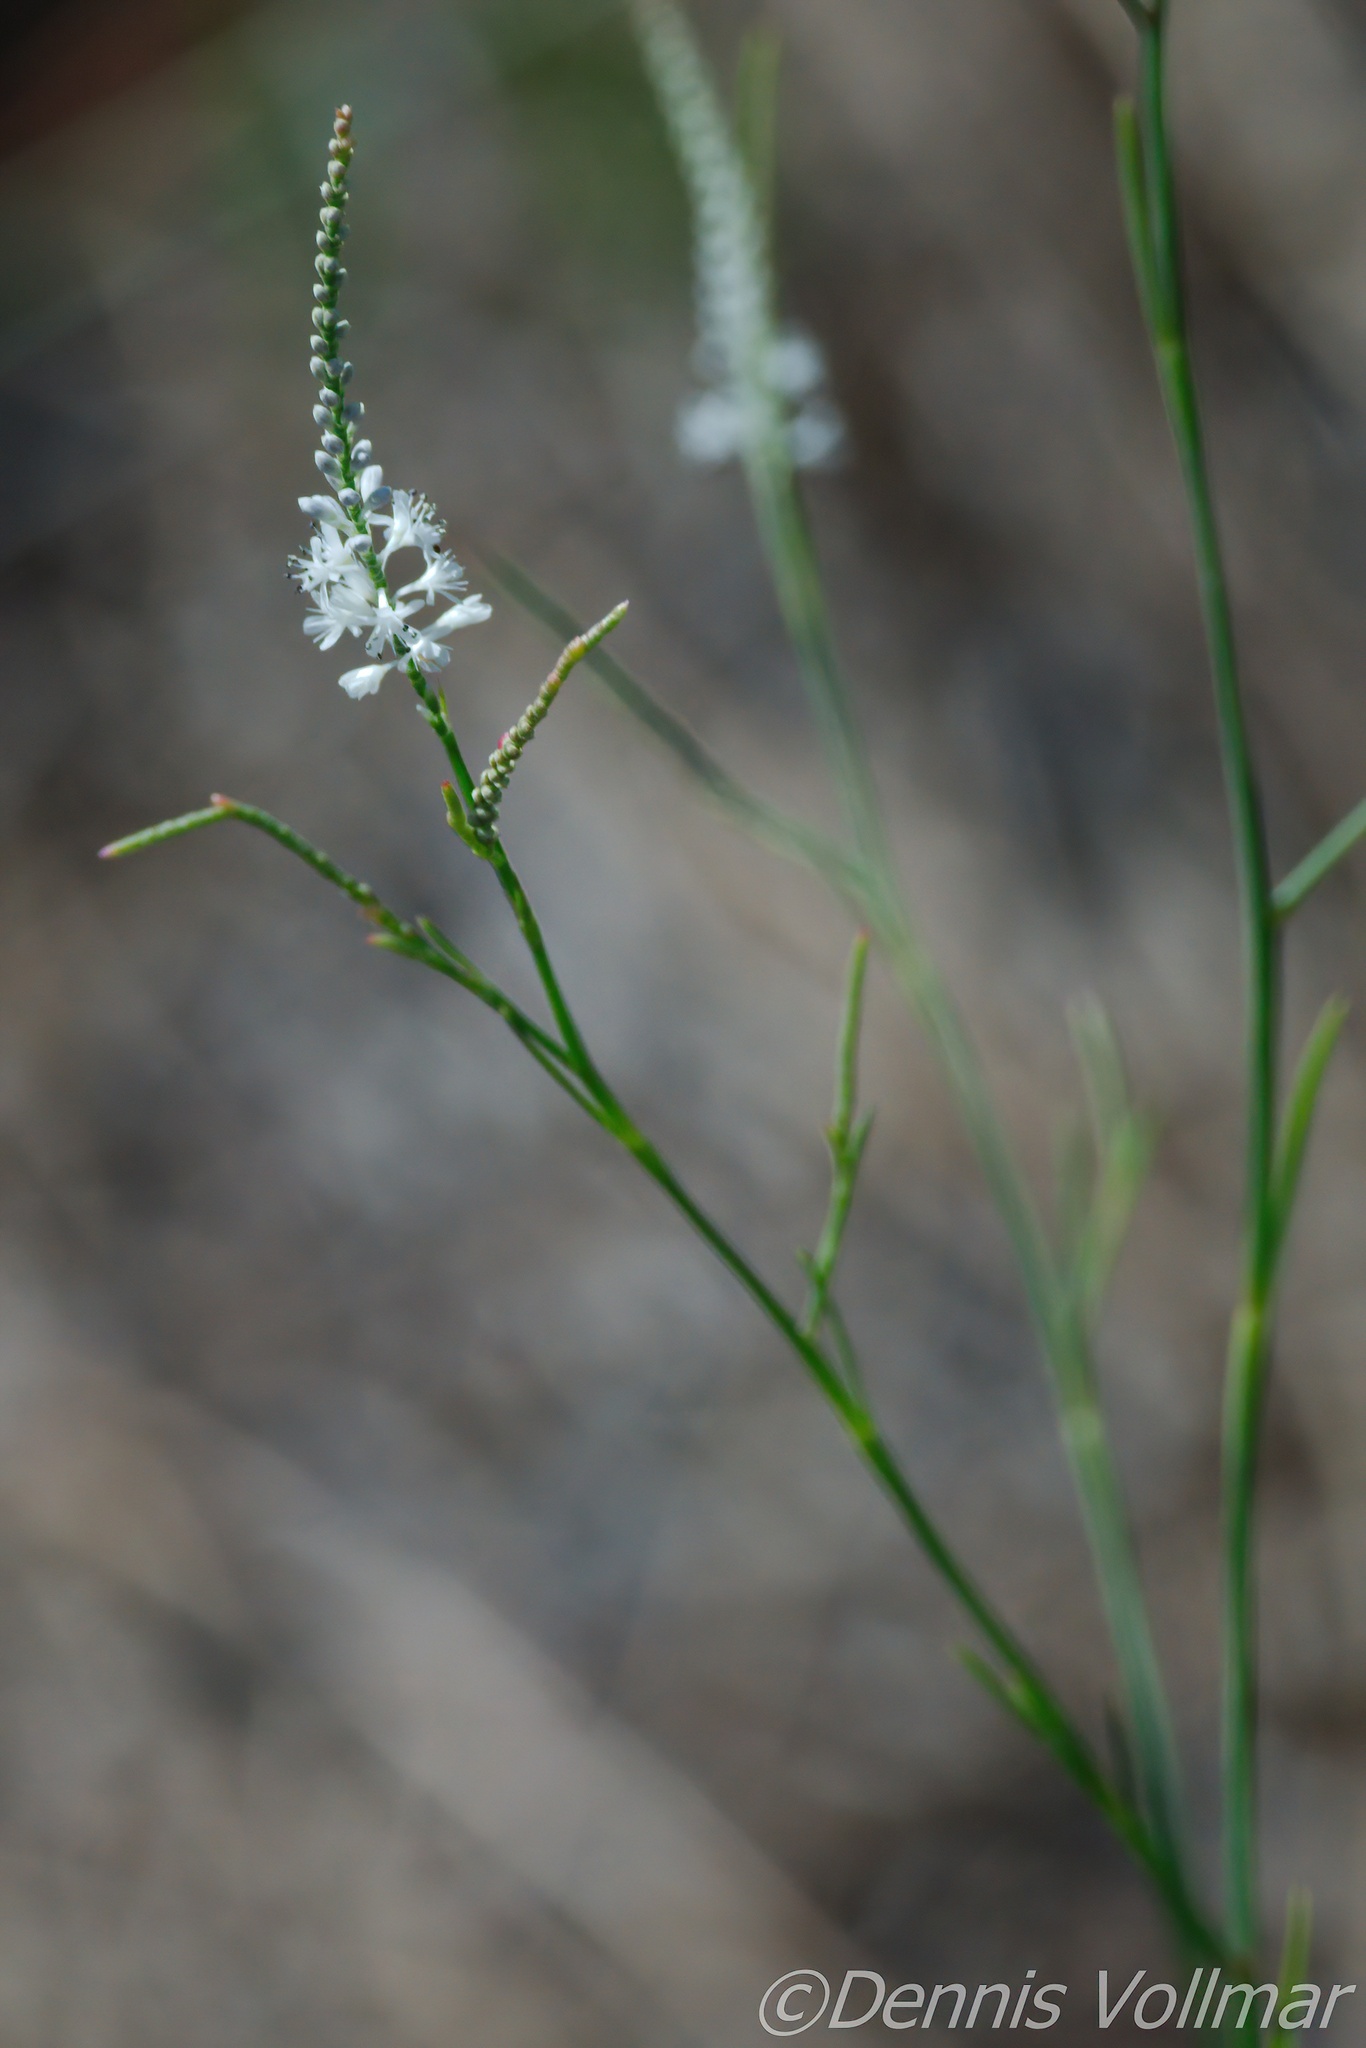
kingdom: Plantae
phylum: Tracheophyta
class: Magnoliopsida
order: Caryophyllales
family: Polygonaceae
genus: Polygonella
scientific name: Polygonella ciliata
